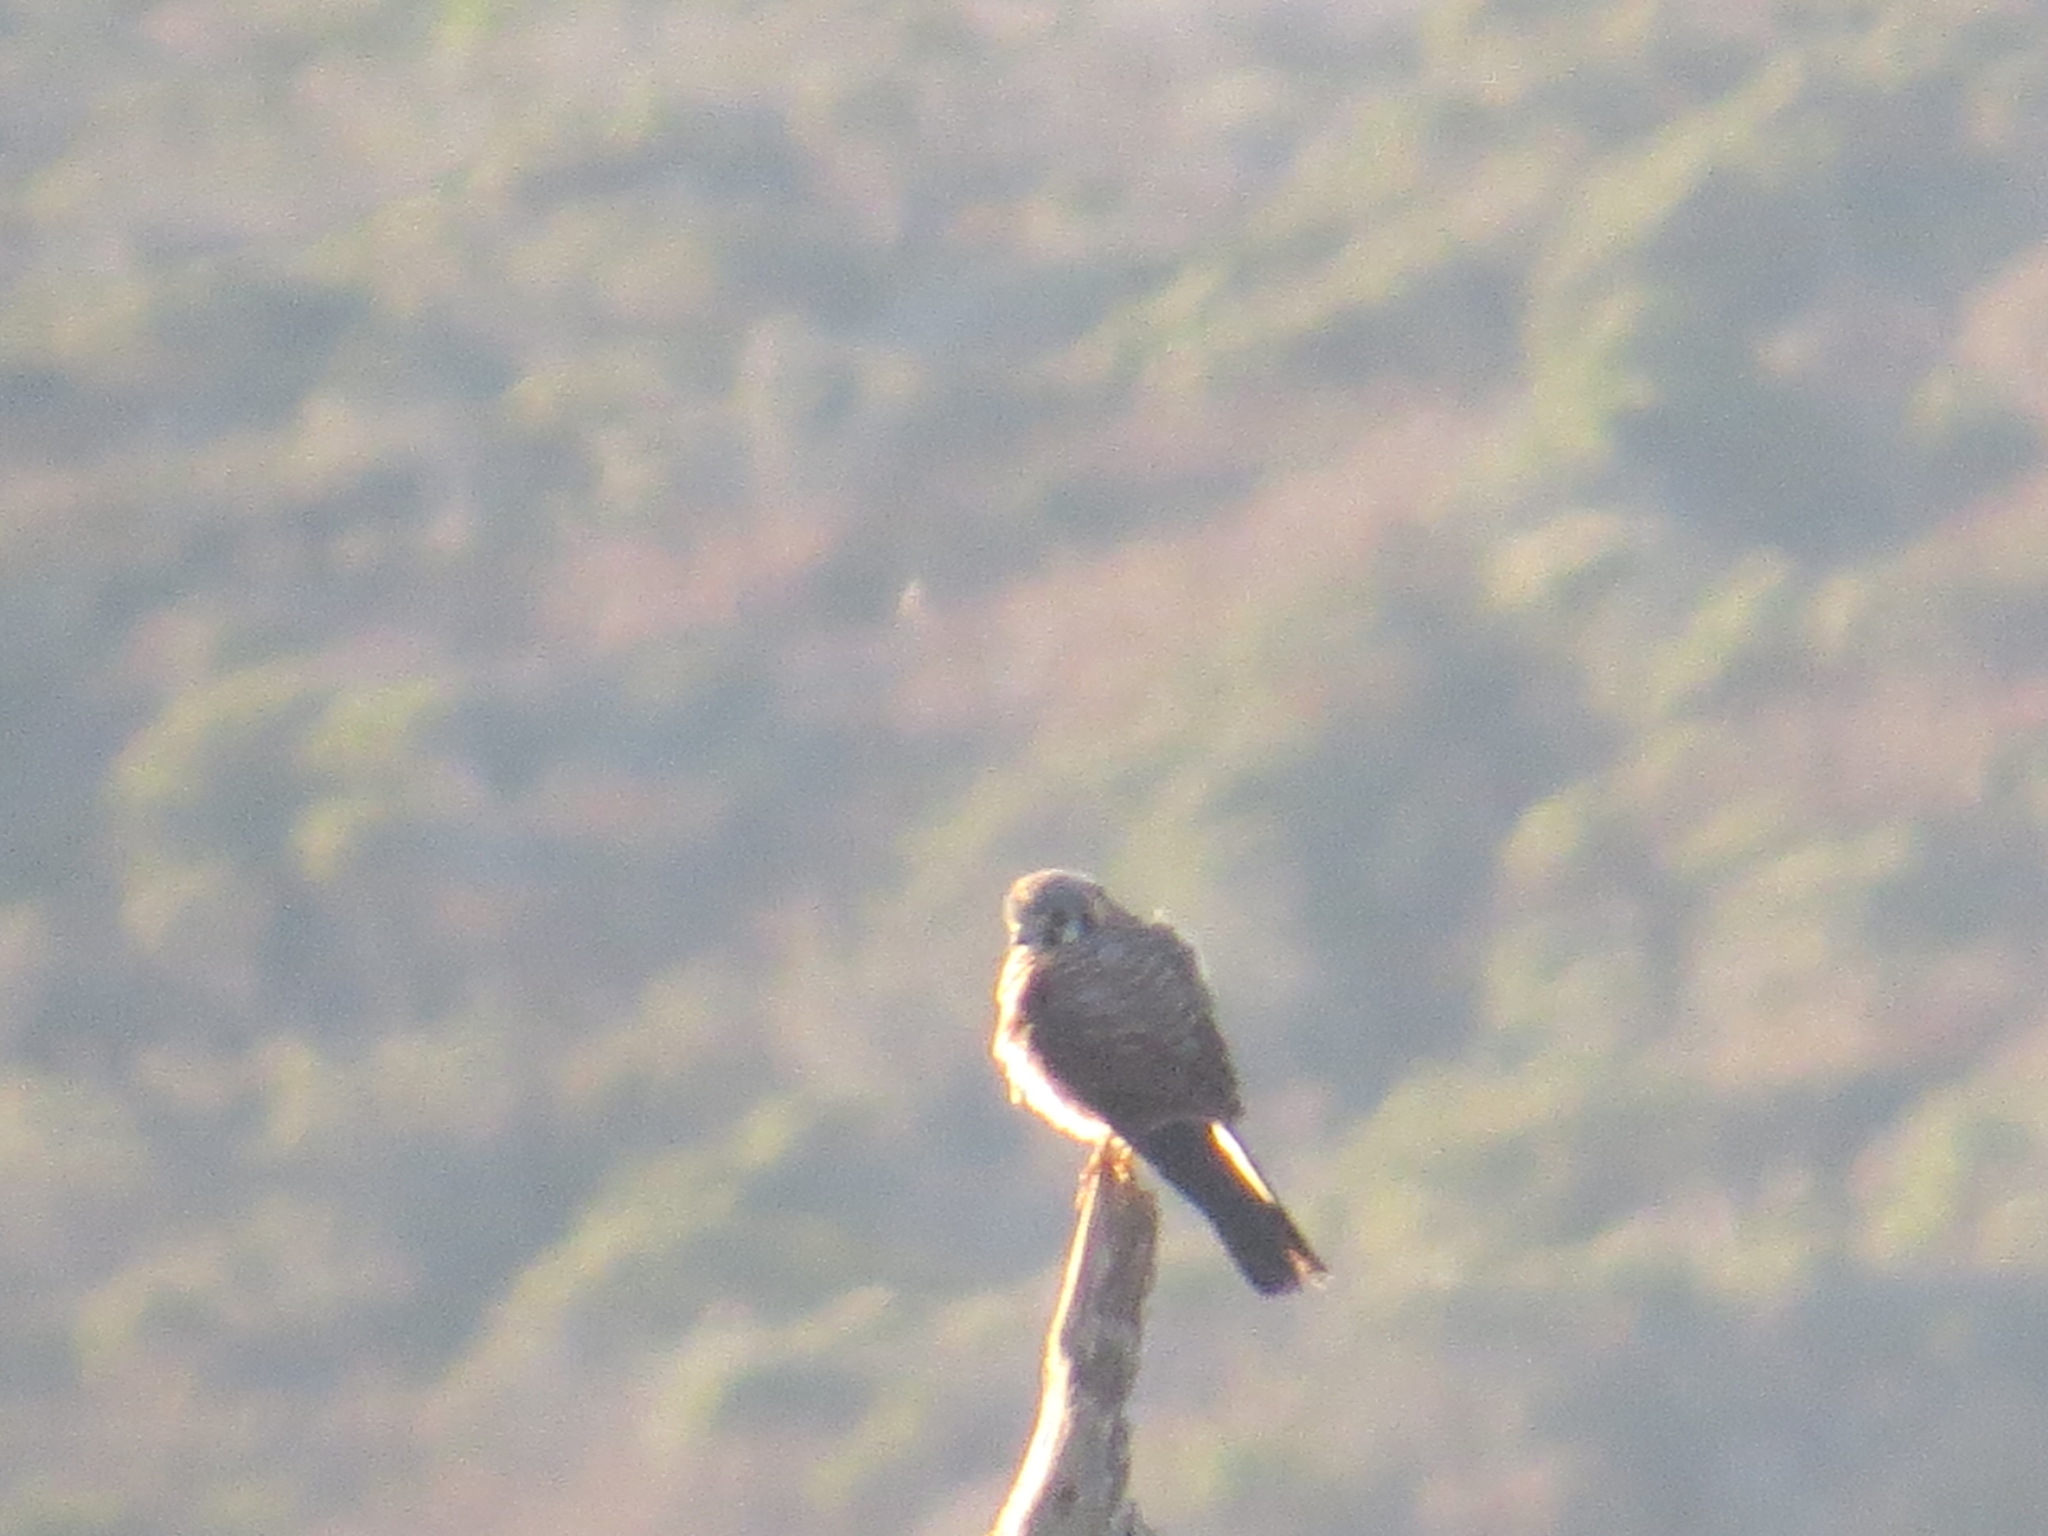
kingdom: Animalia
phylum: Chordata
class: Aves
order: Falconiformes
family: Falconidae
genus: Falco
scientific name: Falco sparverius
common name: American kestrel
